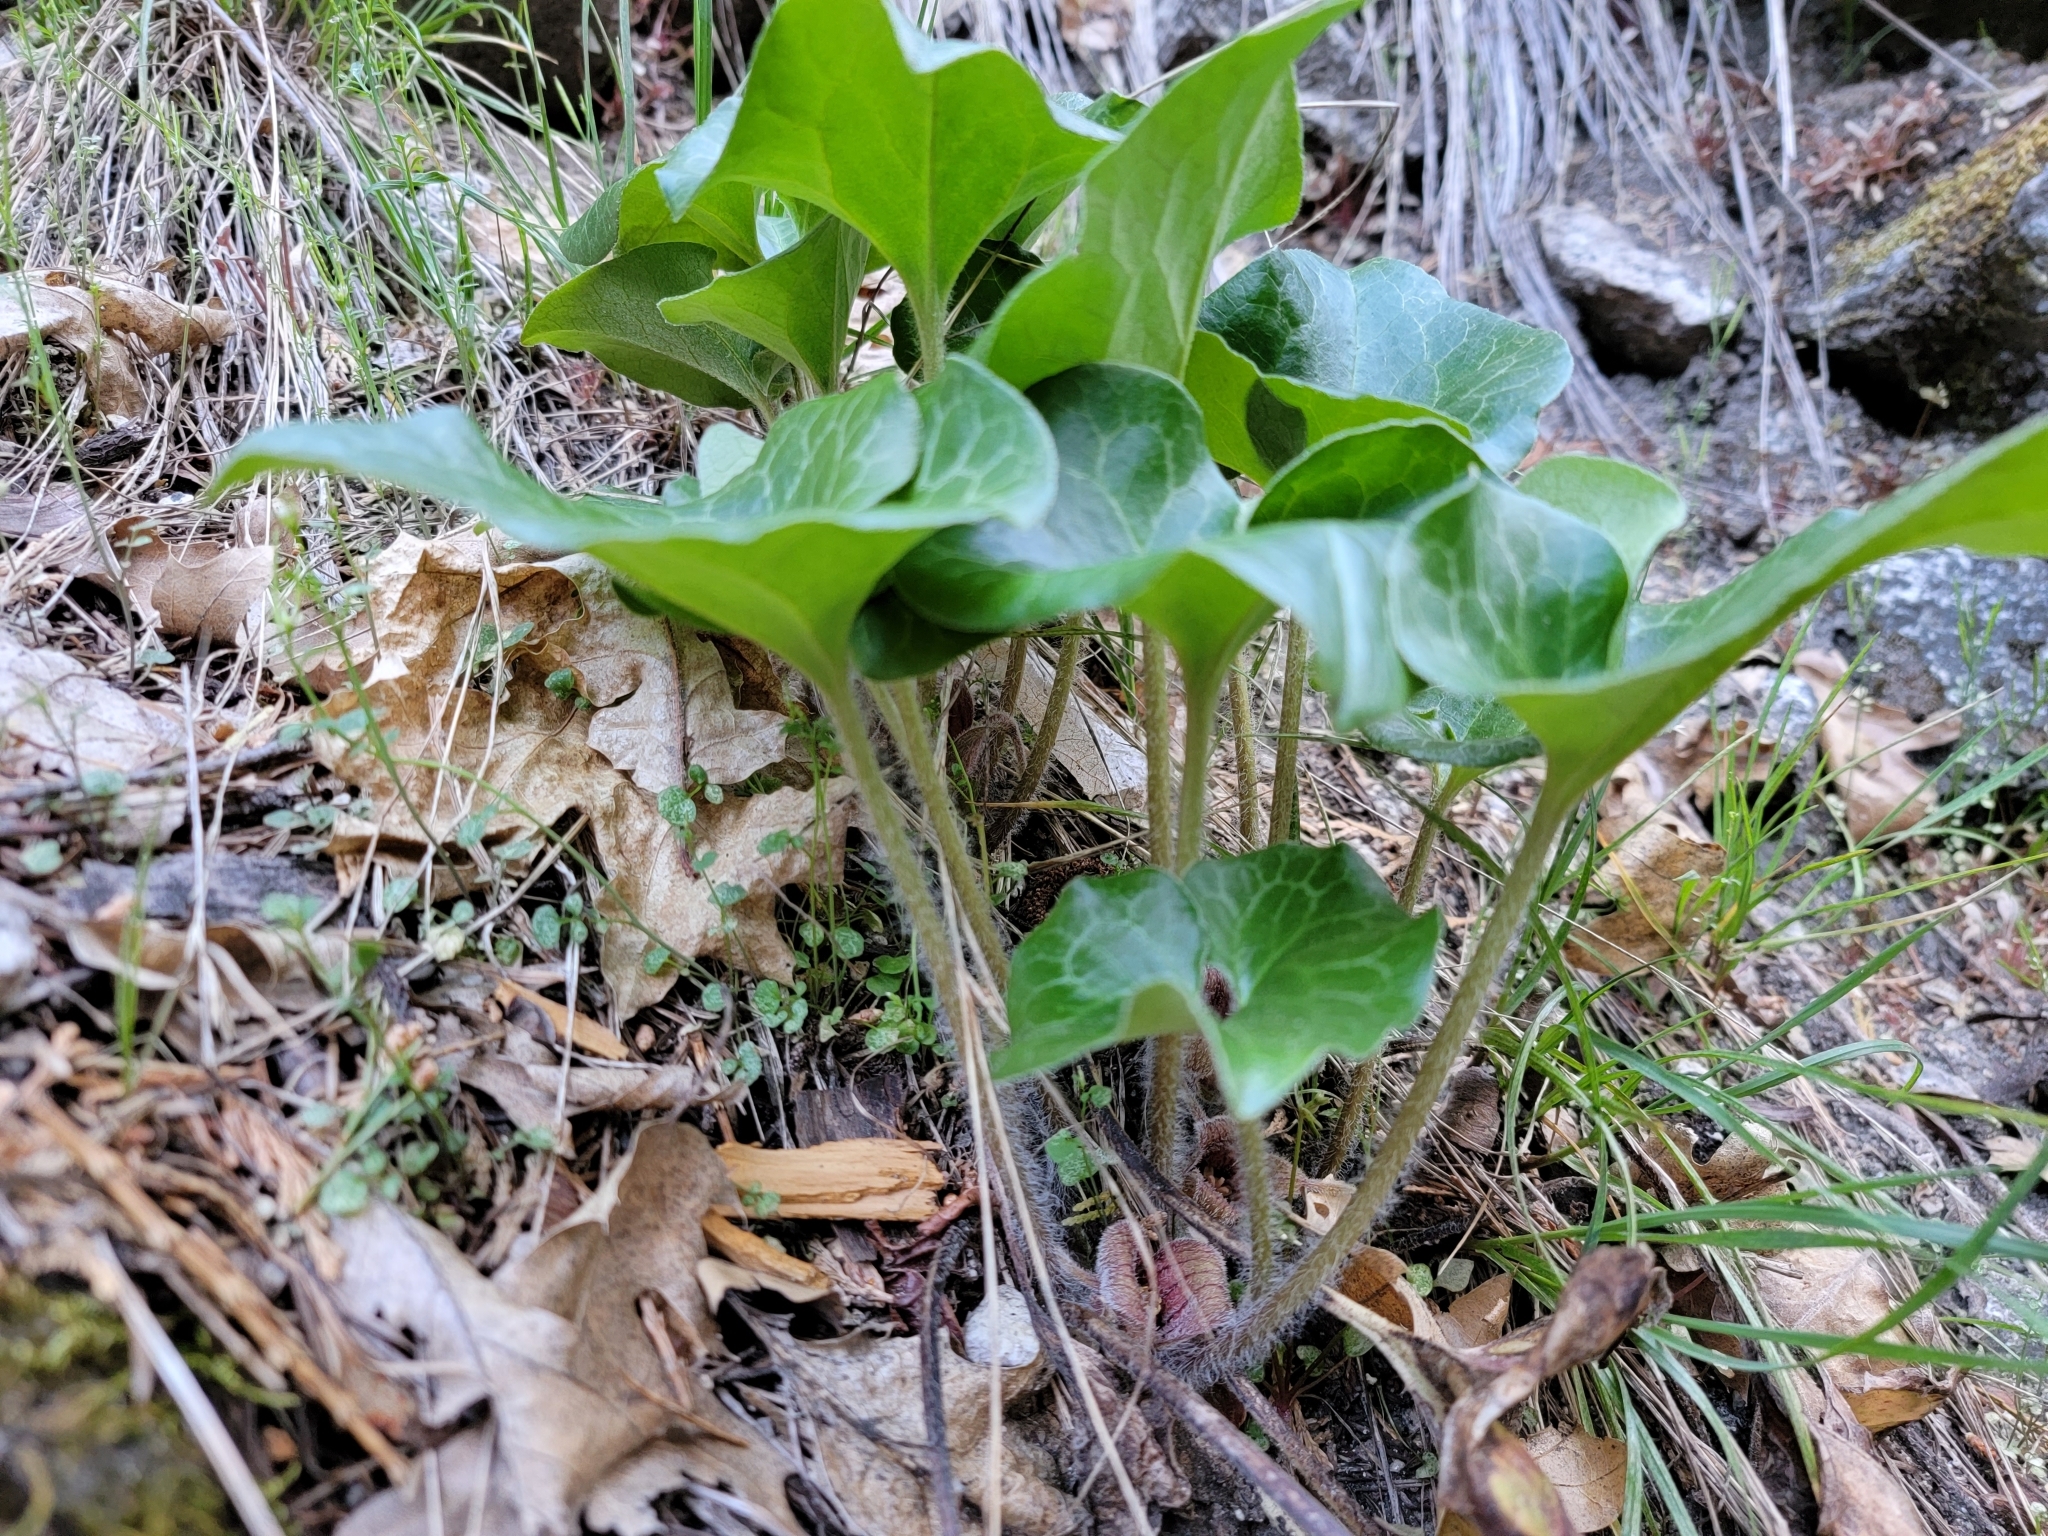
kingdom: Plantae
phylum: Tracheophyta
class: Magnoliopsida
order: Piperales
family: Aristolochiaceae
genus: Asarum
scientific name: Asarum hartwegii
